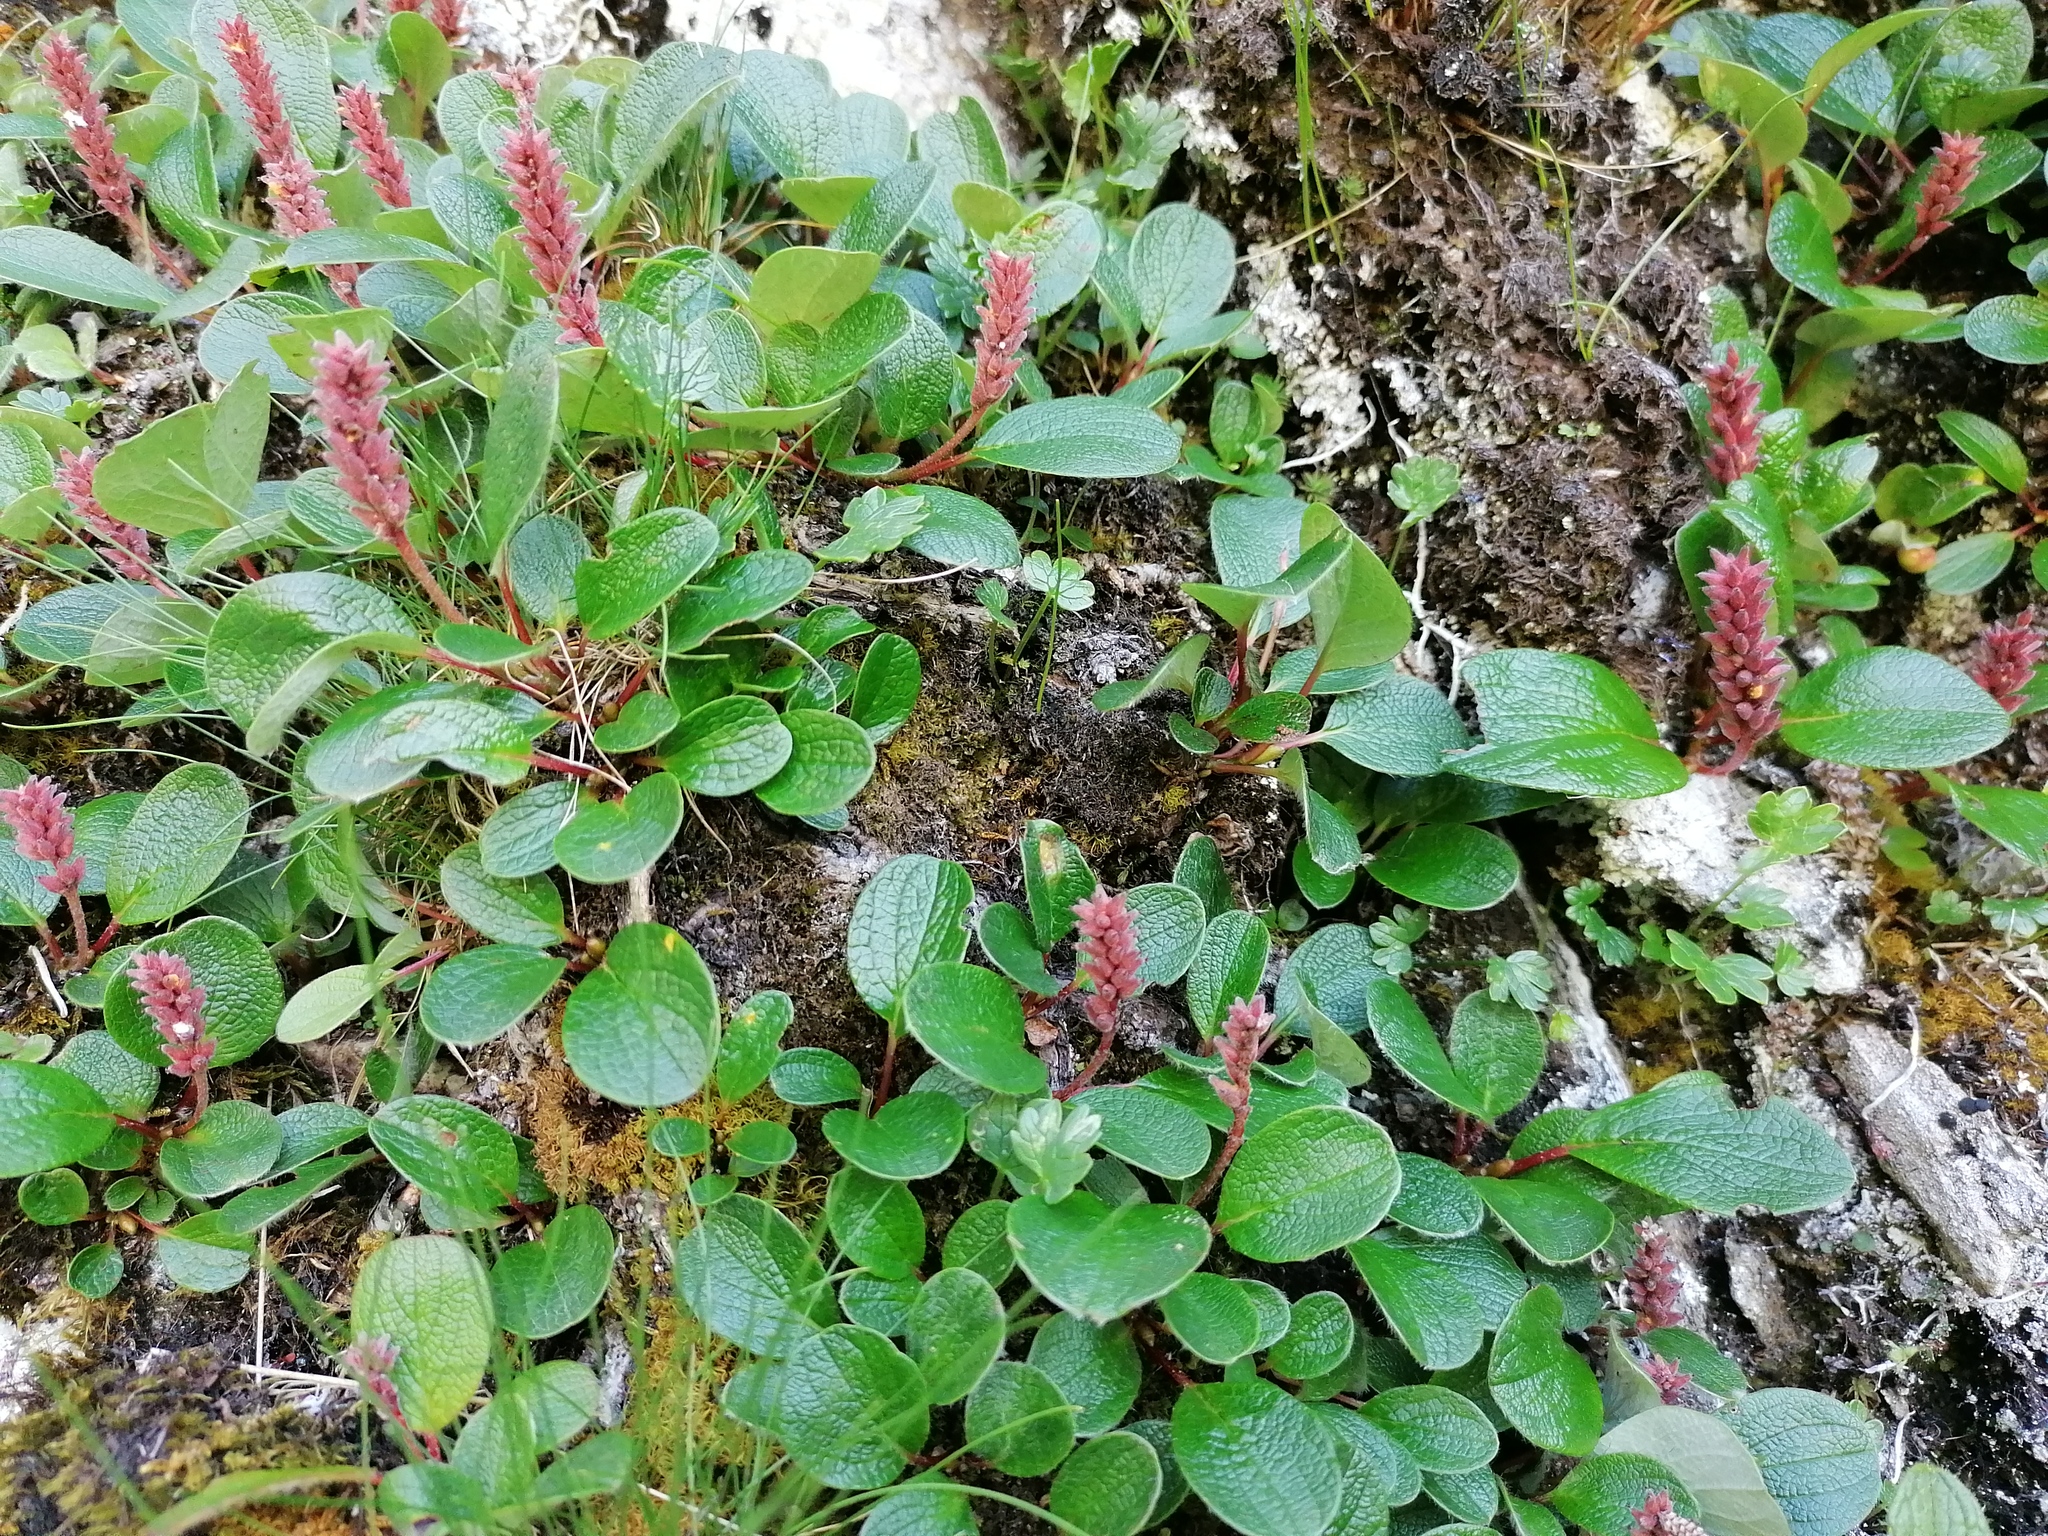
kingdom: Plantae
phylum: Tracheophyta
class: Magnoliopsida
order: Malpighiales
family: Salicaceae
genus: Salix
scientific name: Salix reticulata
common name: Net-leaved willow
